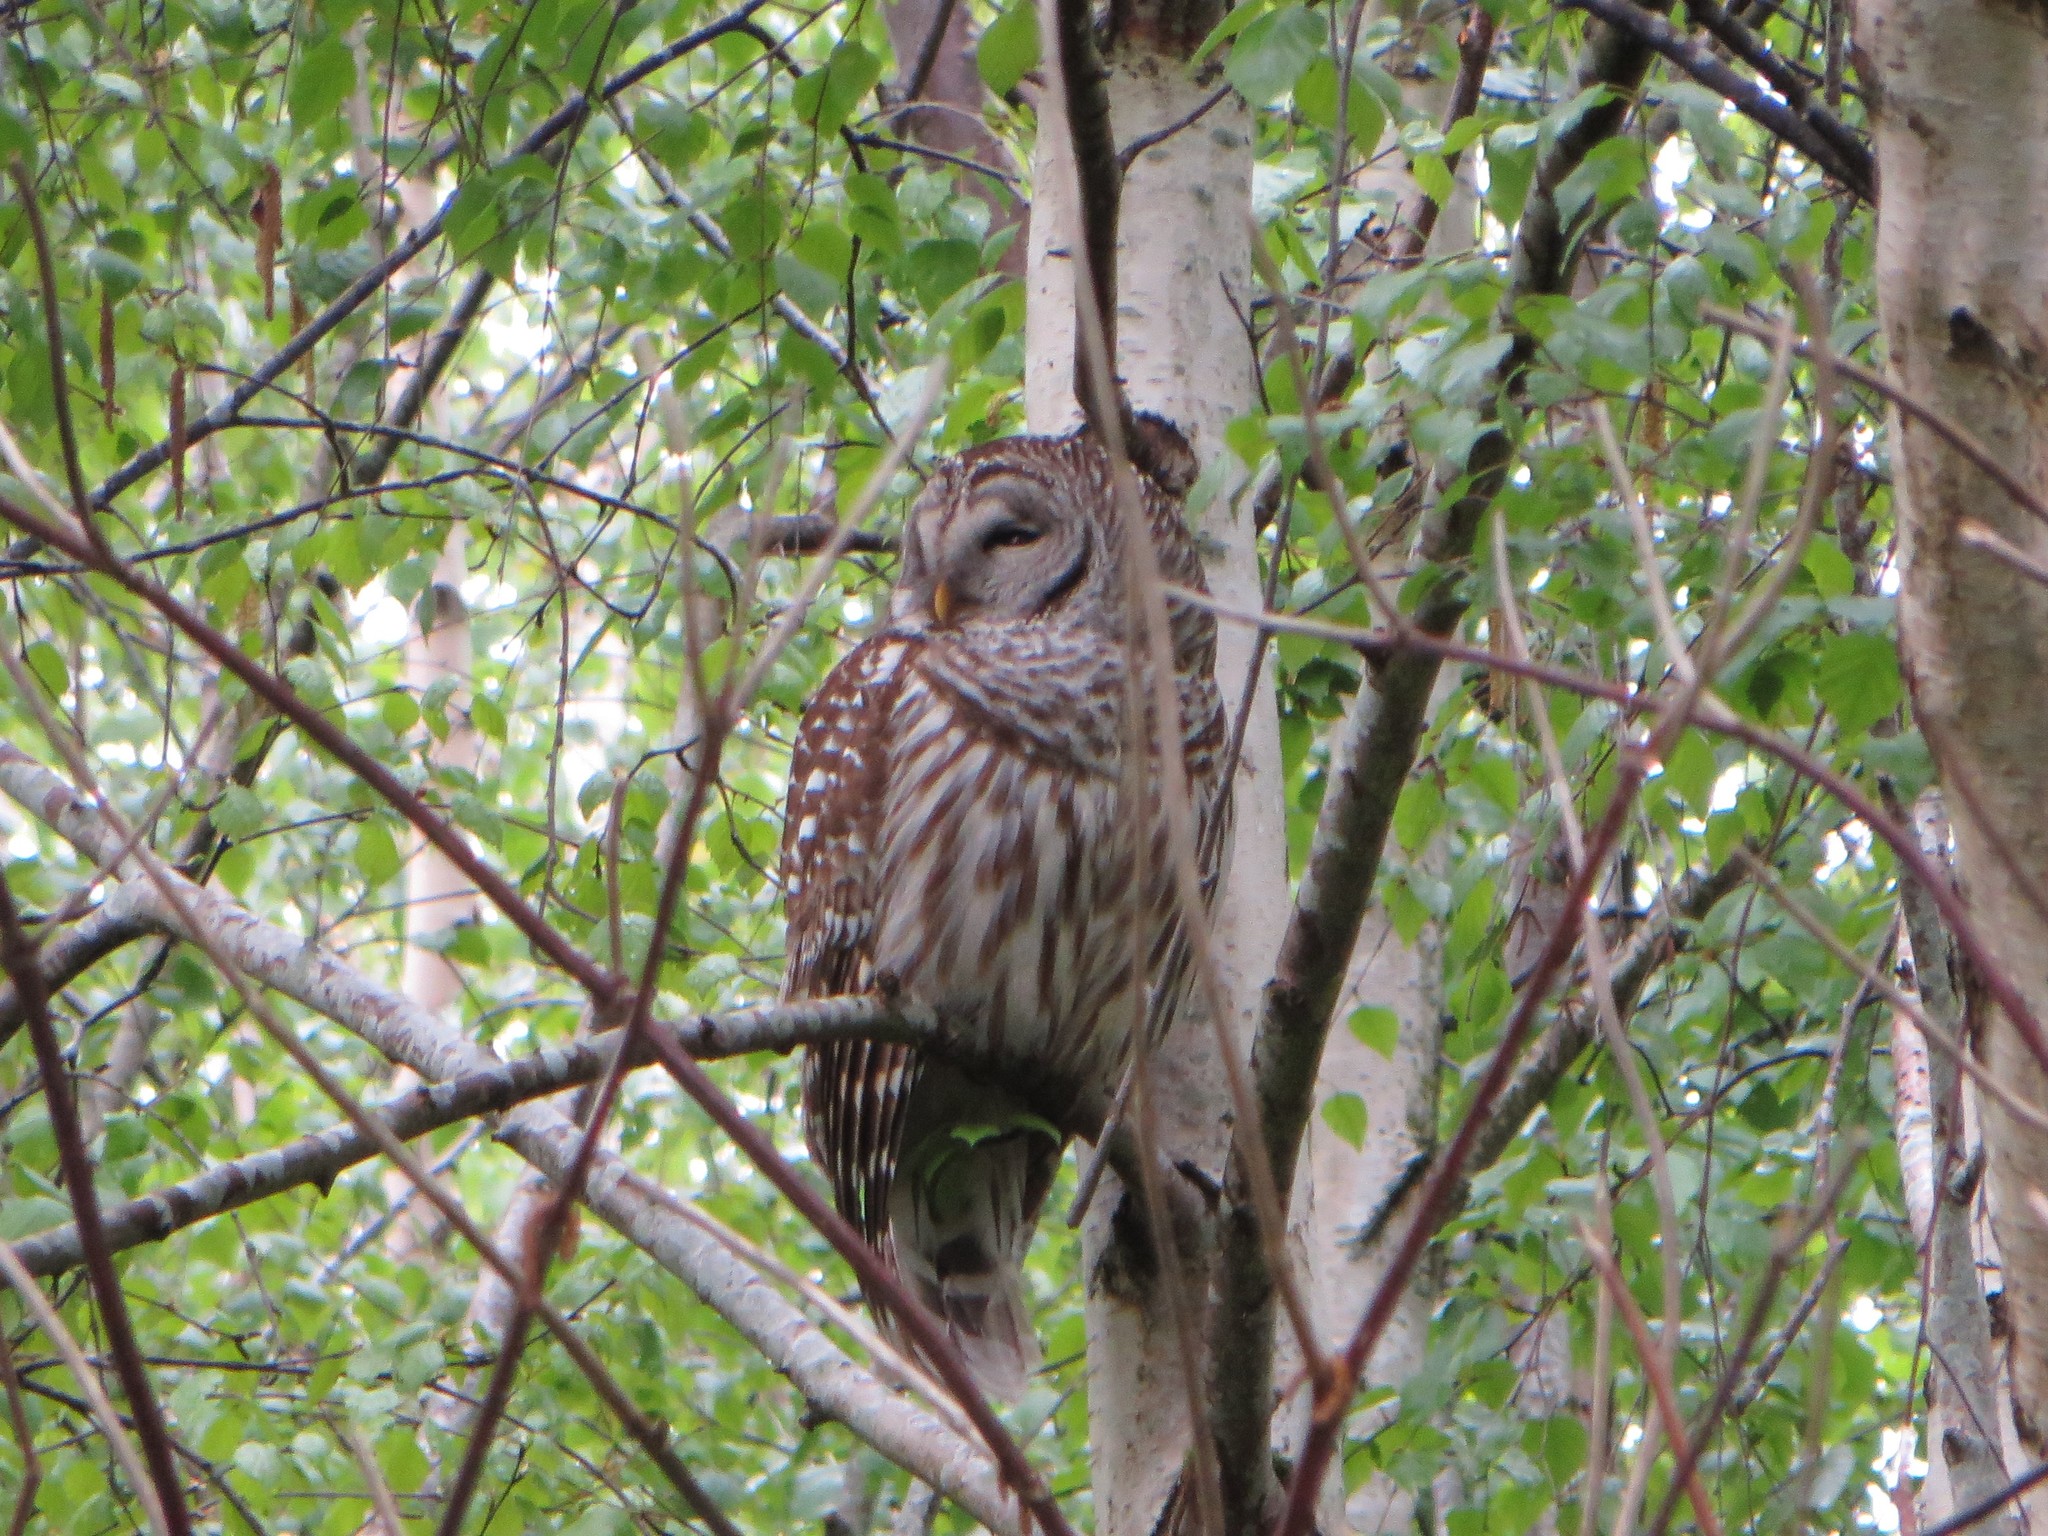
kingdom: Animalia
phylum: Chordata
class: Aves
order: Strigiformes
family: Strigidae
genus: Strix
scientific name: Strix varia
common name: Barred owl
